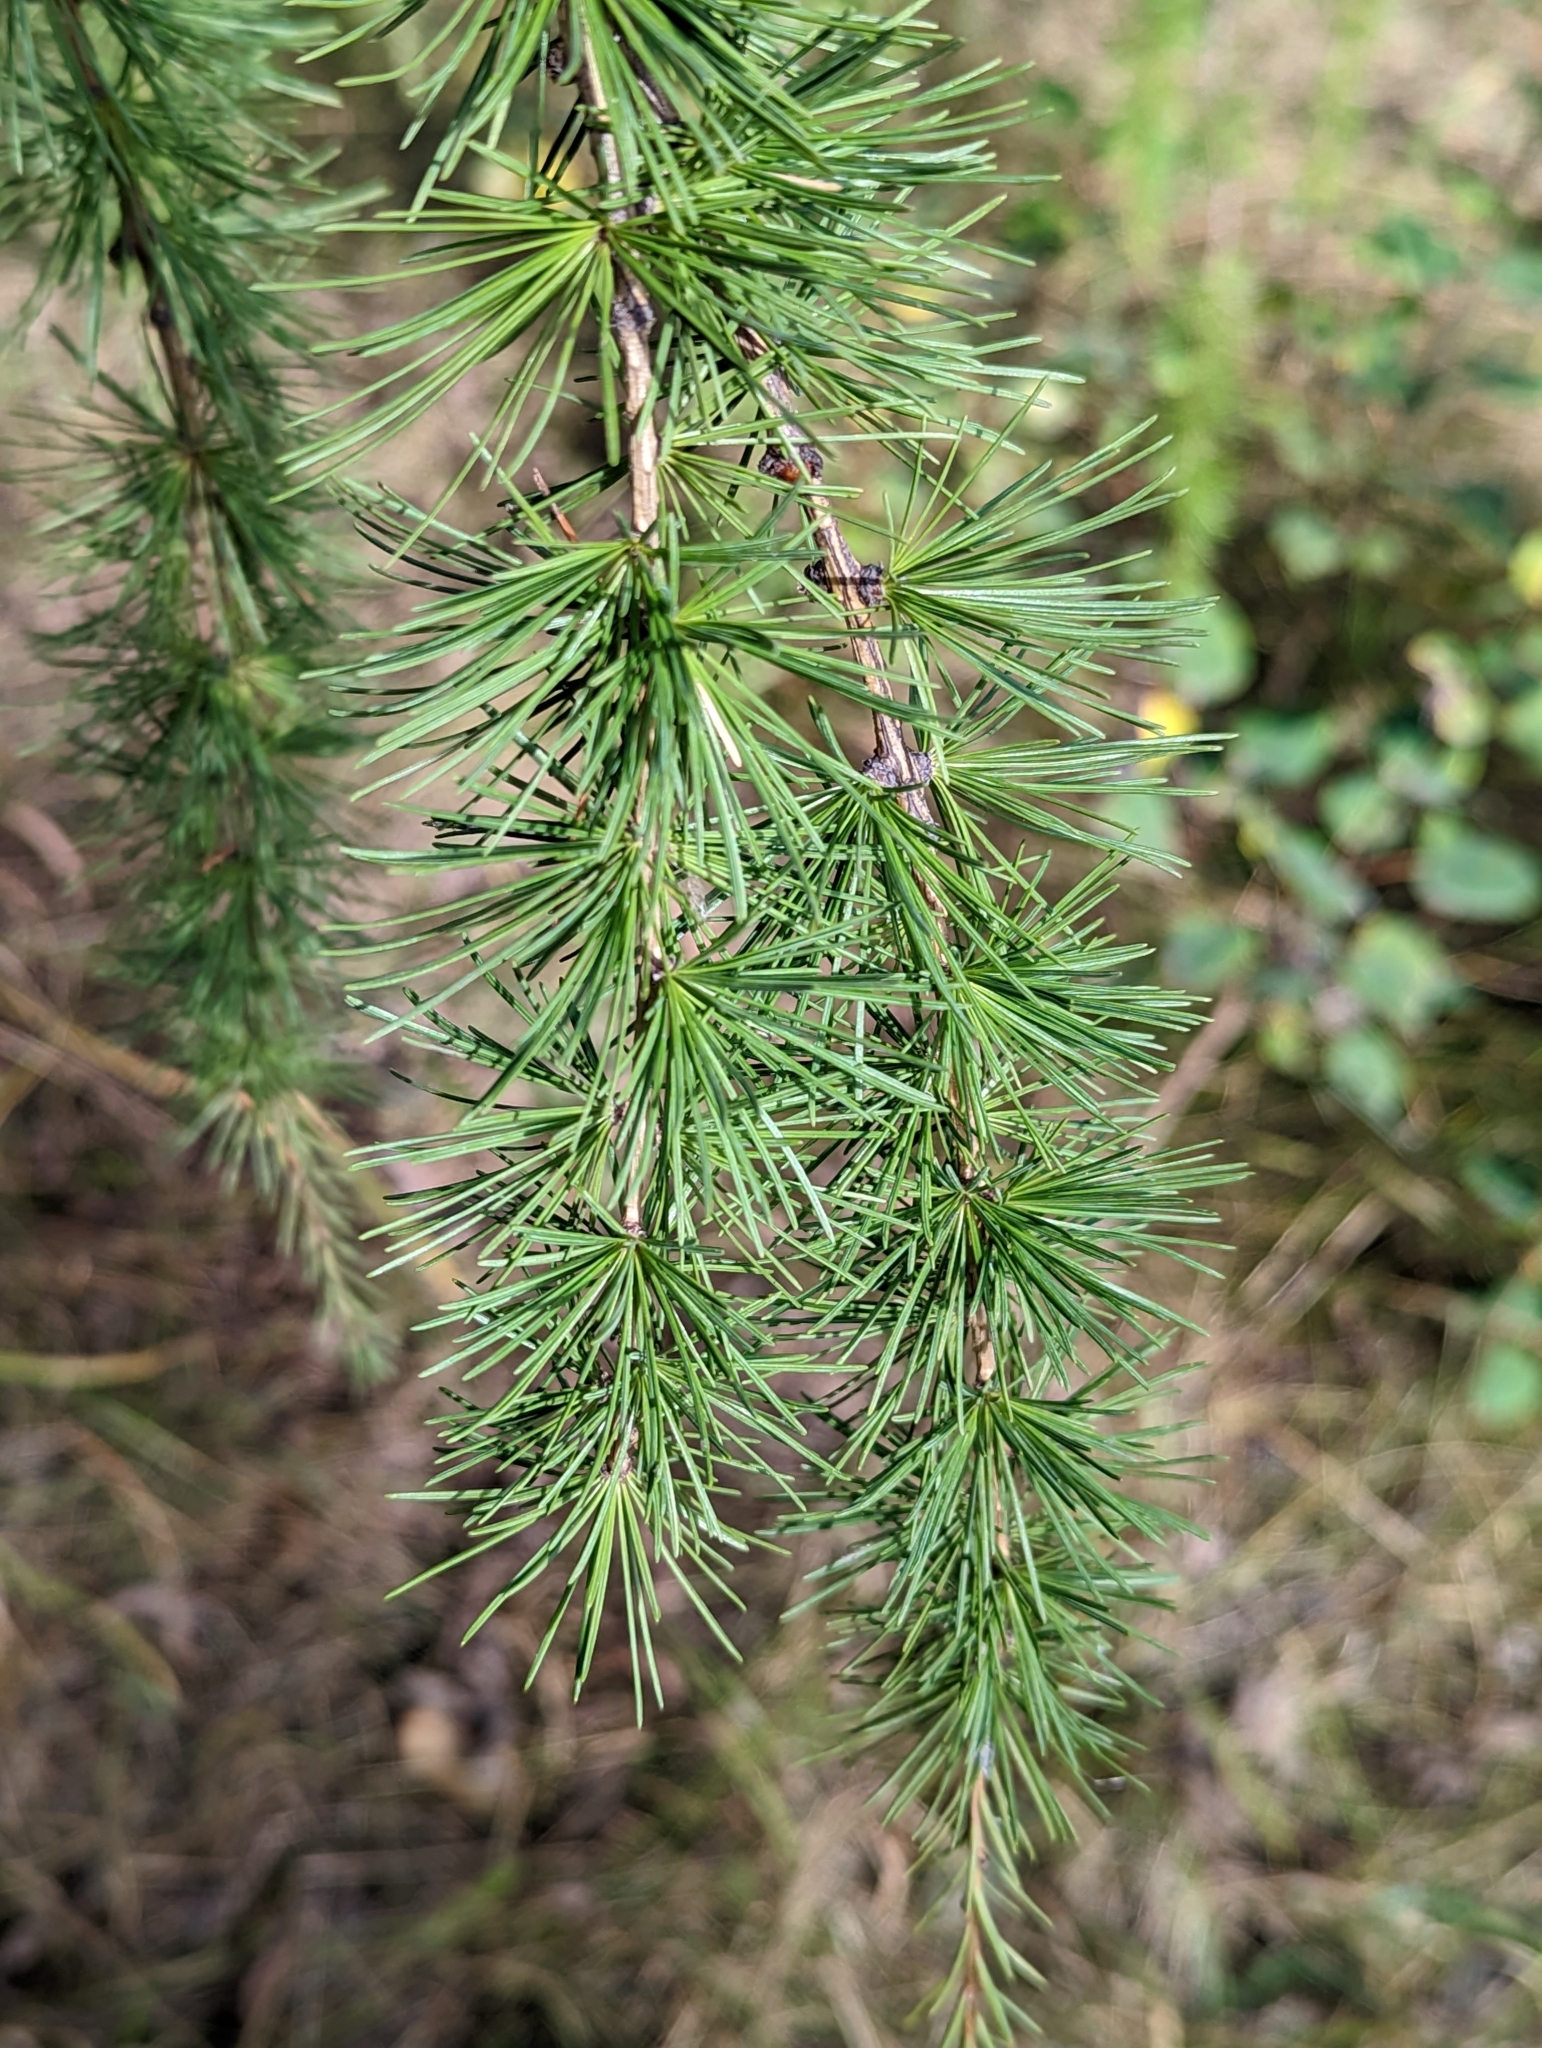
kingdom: Plantae
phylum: Tracheophyta
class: Pinopsida
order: Pinales
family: Pinaceae
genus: Larix
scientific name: Larix laricina
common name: American larch
